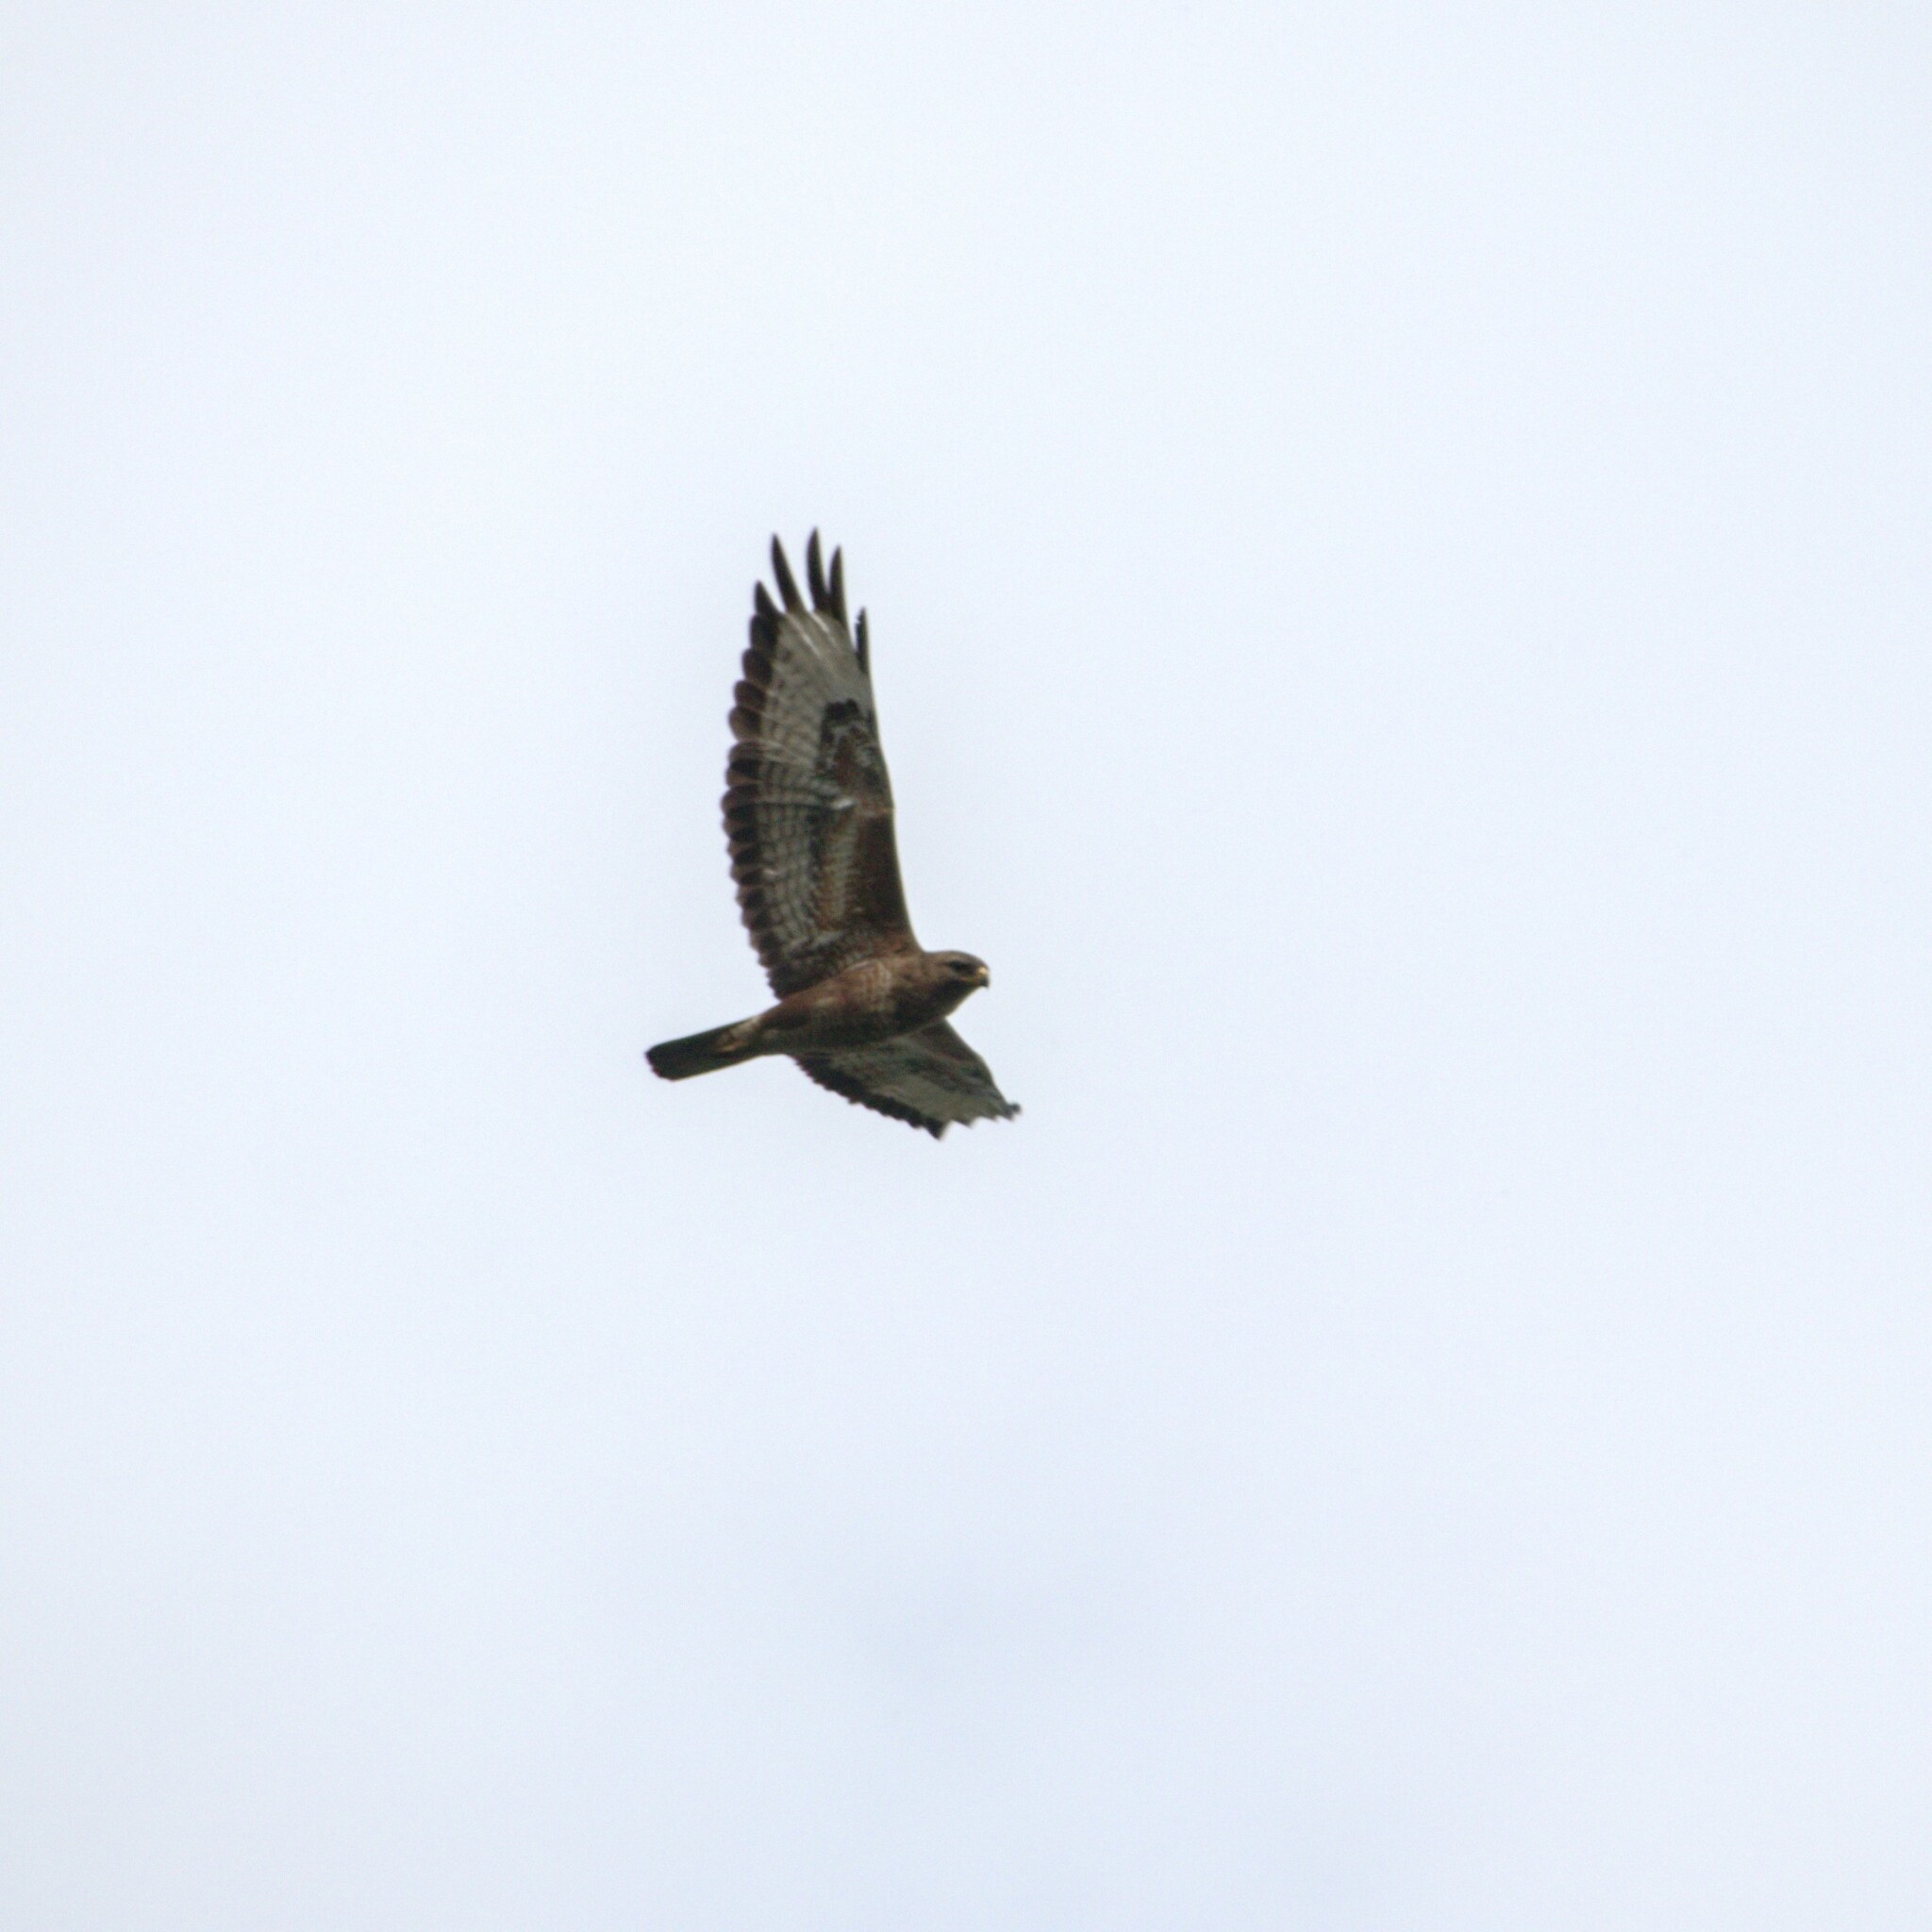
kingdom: Animalia
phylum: Chordata
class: Aves
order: Accipitriformes
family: Accipitridae
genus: Buteo
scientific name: Buteo buteo
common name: Common buzzard
